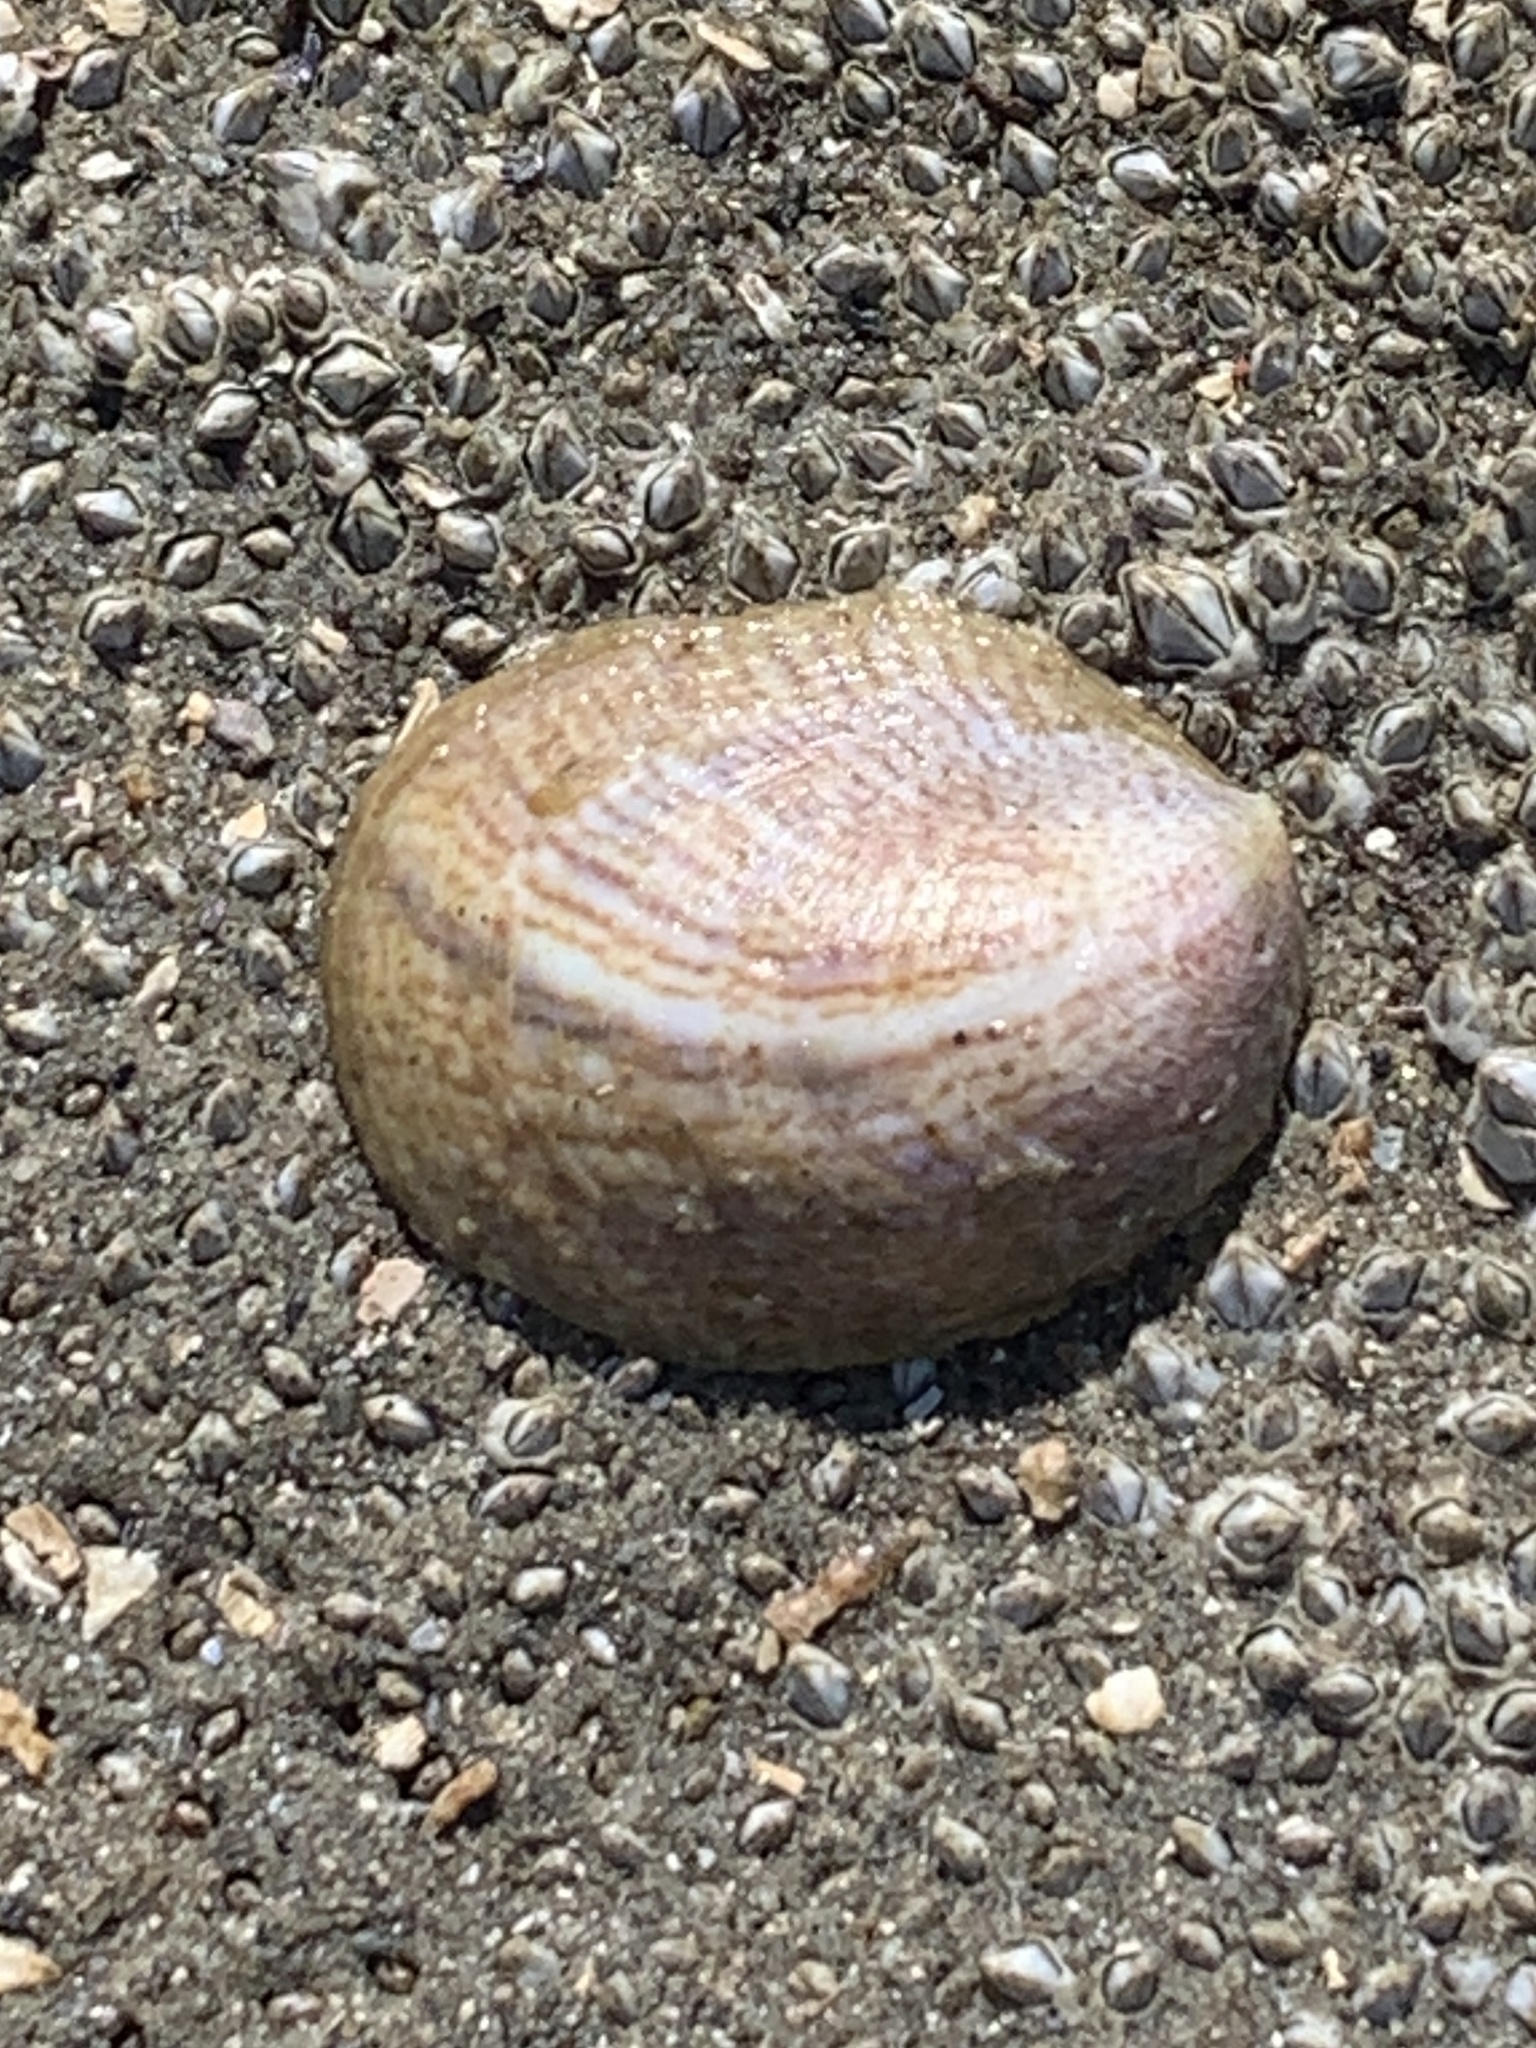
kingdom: Animalia
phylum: Mollusca
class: Gastropoda
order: Littorinimorpha
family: Calyptraeidae
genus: Crepidula
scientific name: Crepidula fornicata
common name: Slipper limpet
